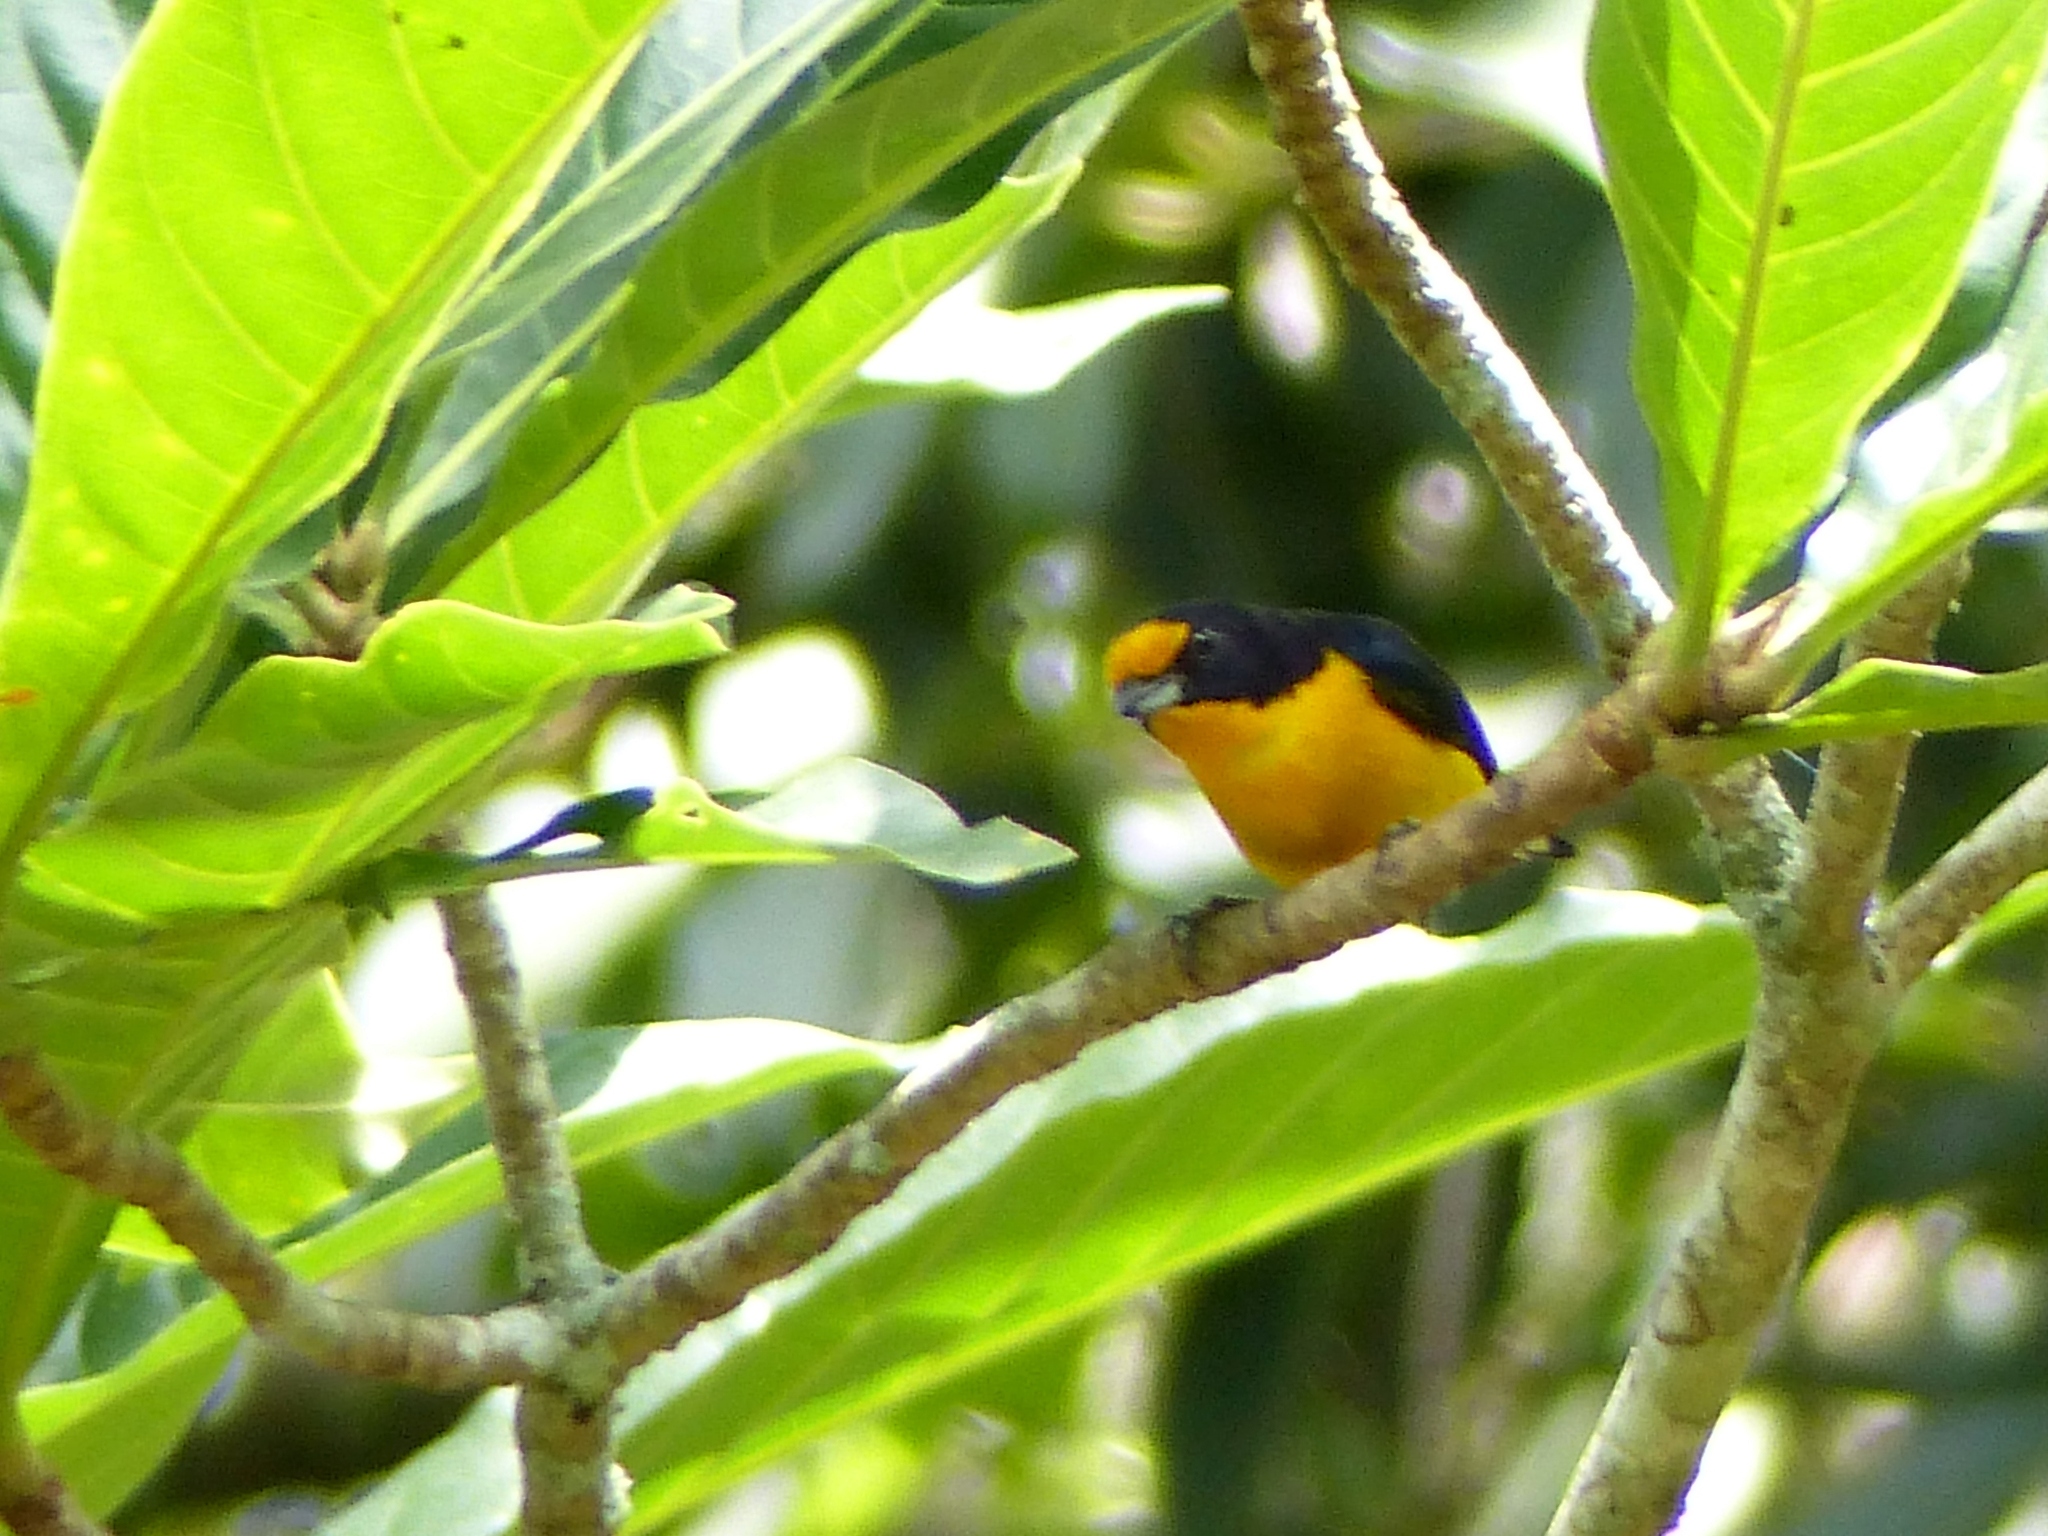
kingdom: Animalia
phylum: Chordata
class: Aves
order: Passeriformes
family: Fringillidae
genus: Euphonia
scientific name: Euphonia violacea
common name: Violaceous euphonia
